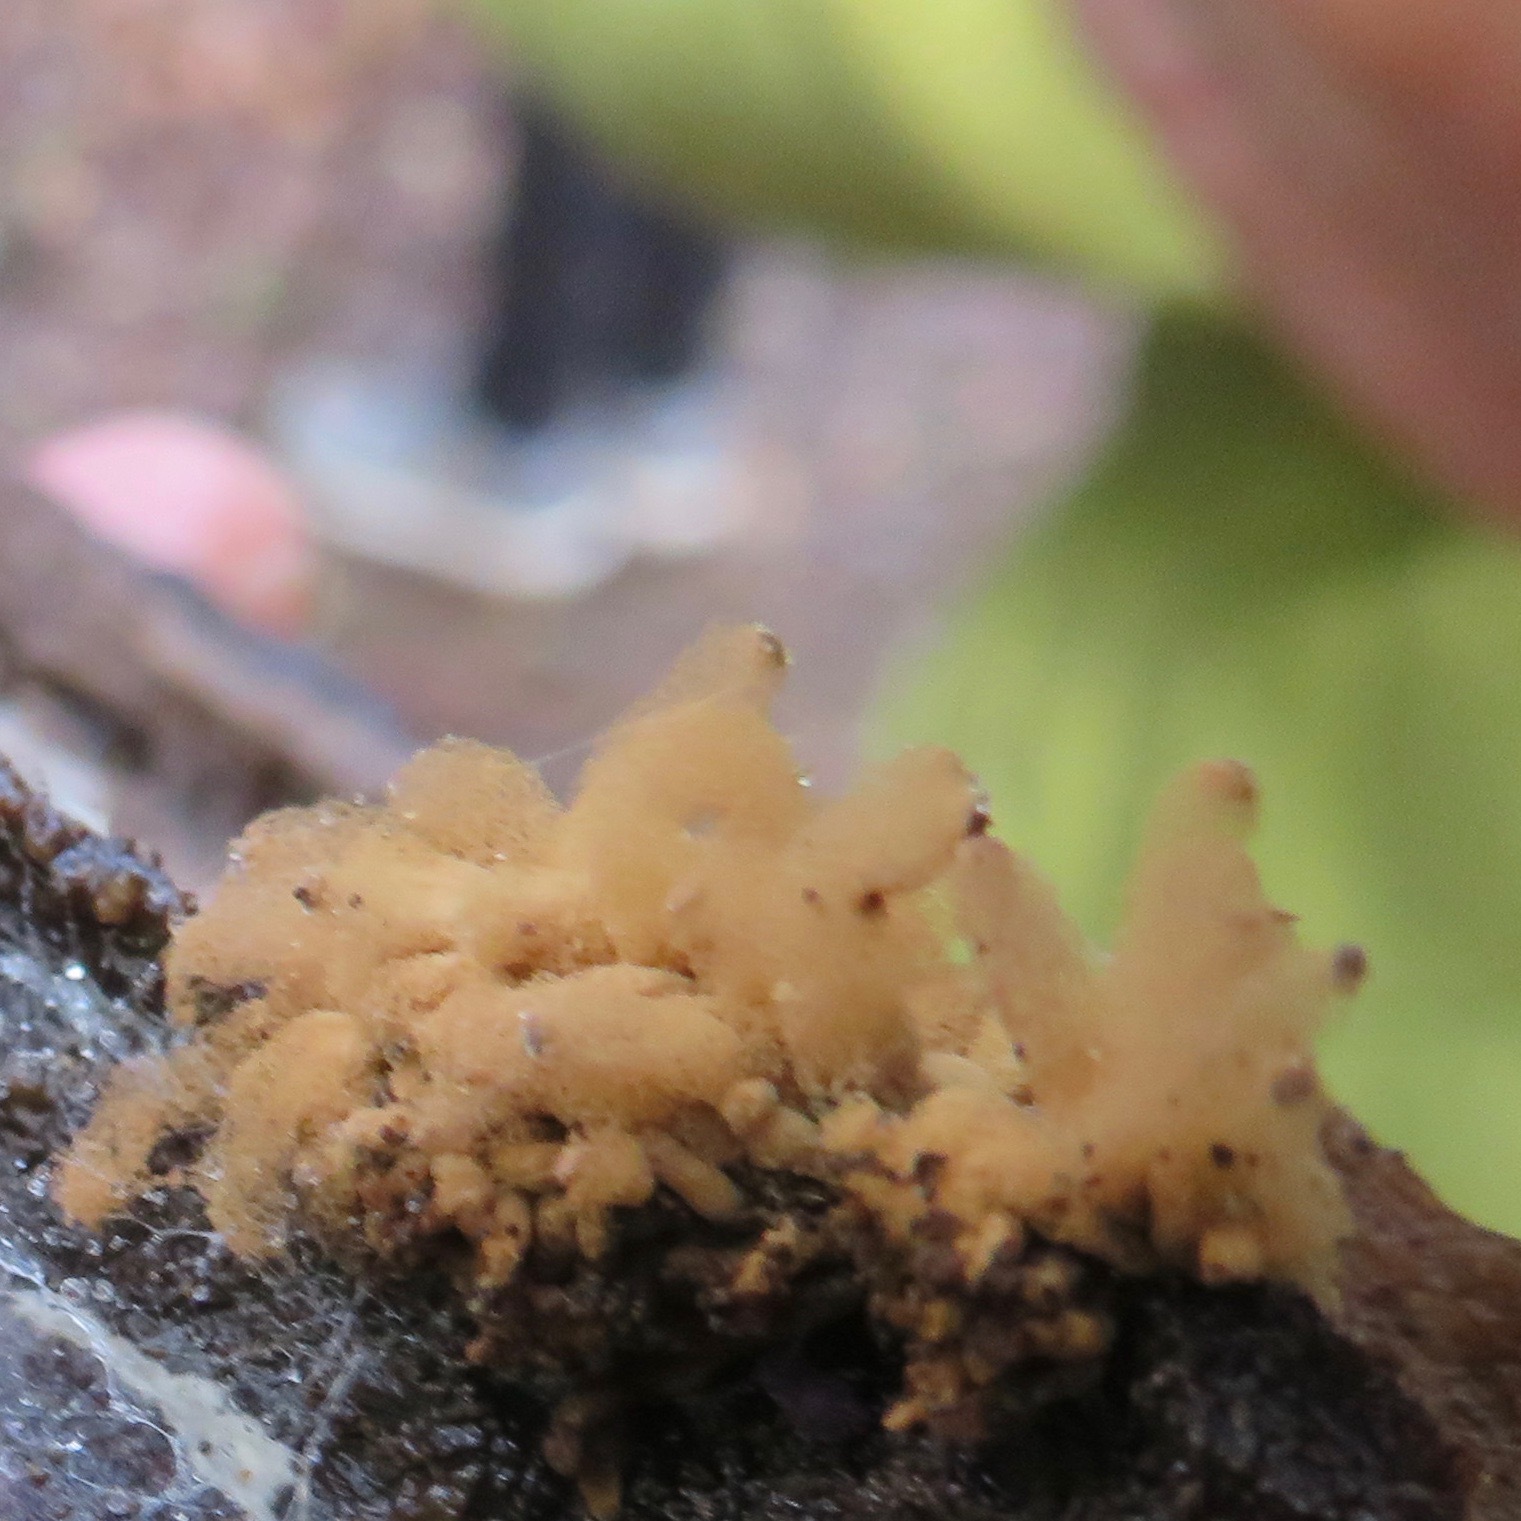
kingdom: Protozoa
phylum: Mycetozoa
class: Myxomycetes
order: Trichiales
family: Arcyriaceae
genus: Arcyria
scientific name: Arcyria obvelata
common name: Yellow carnival candy slime
